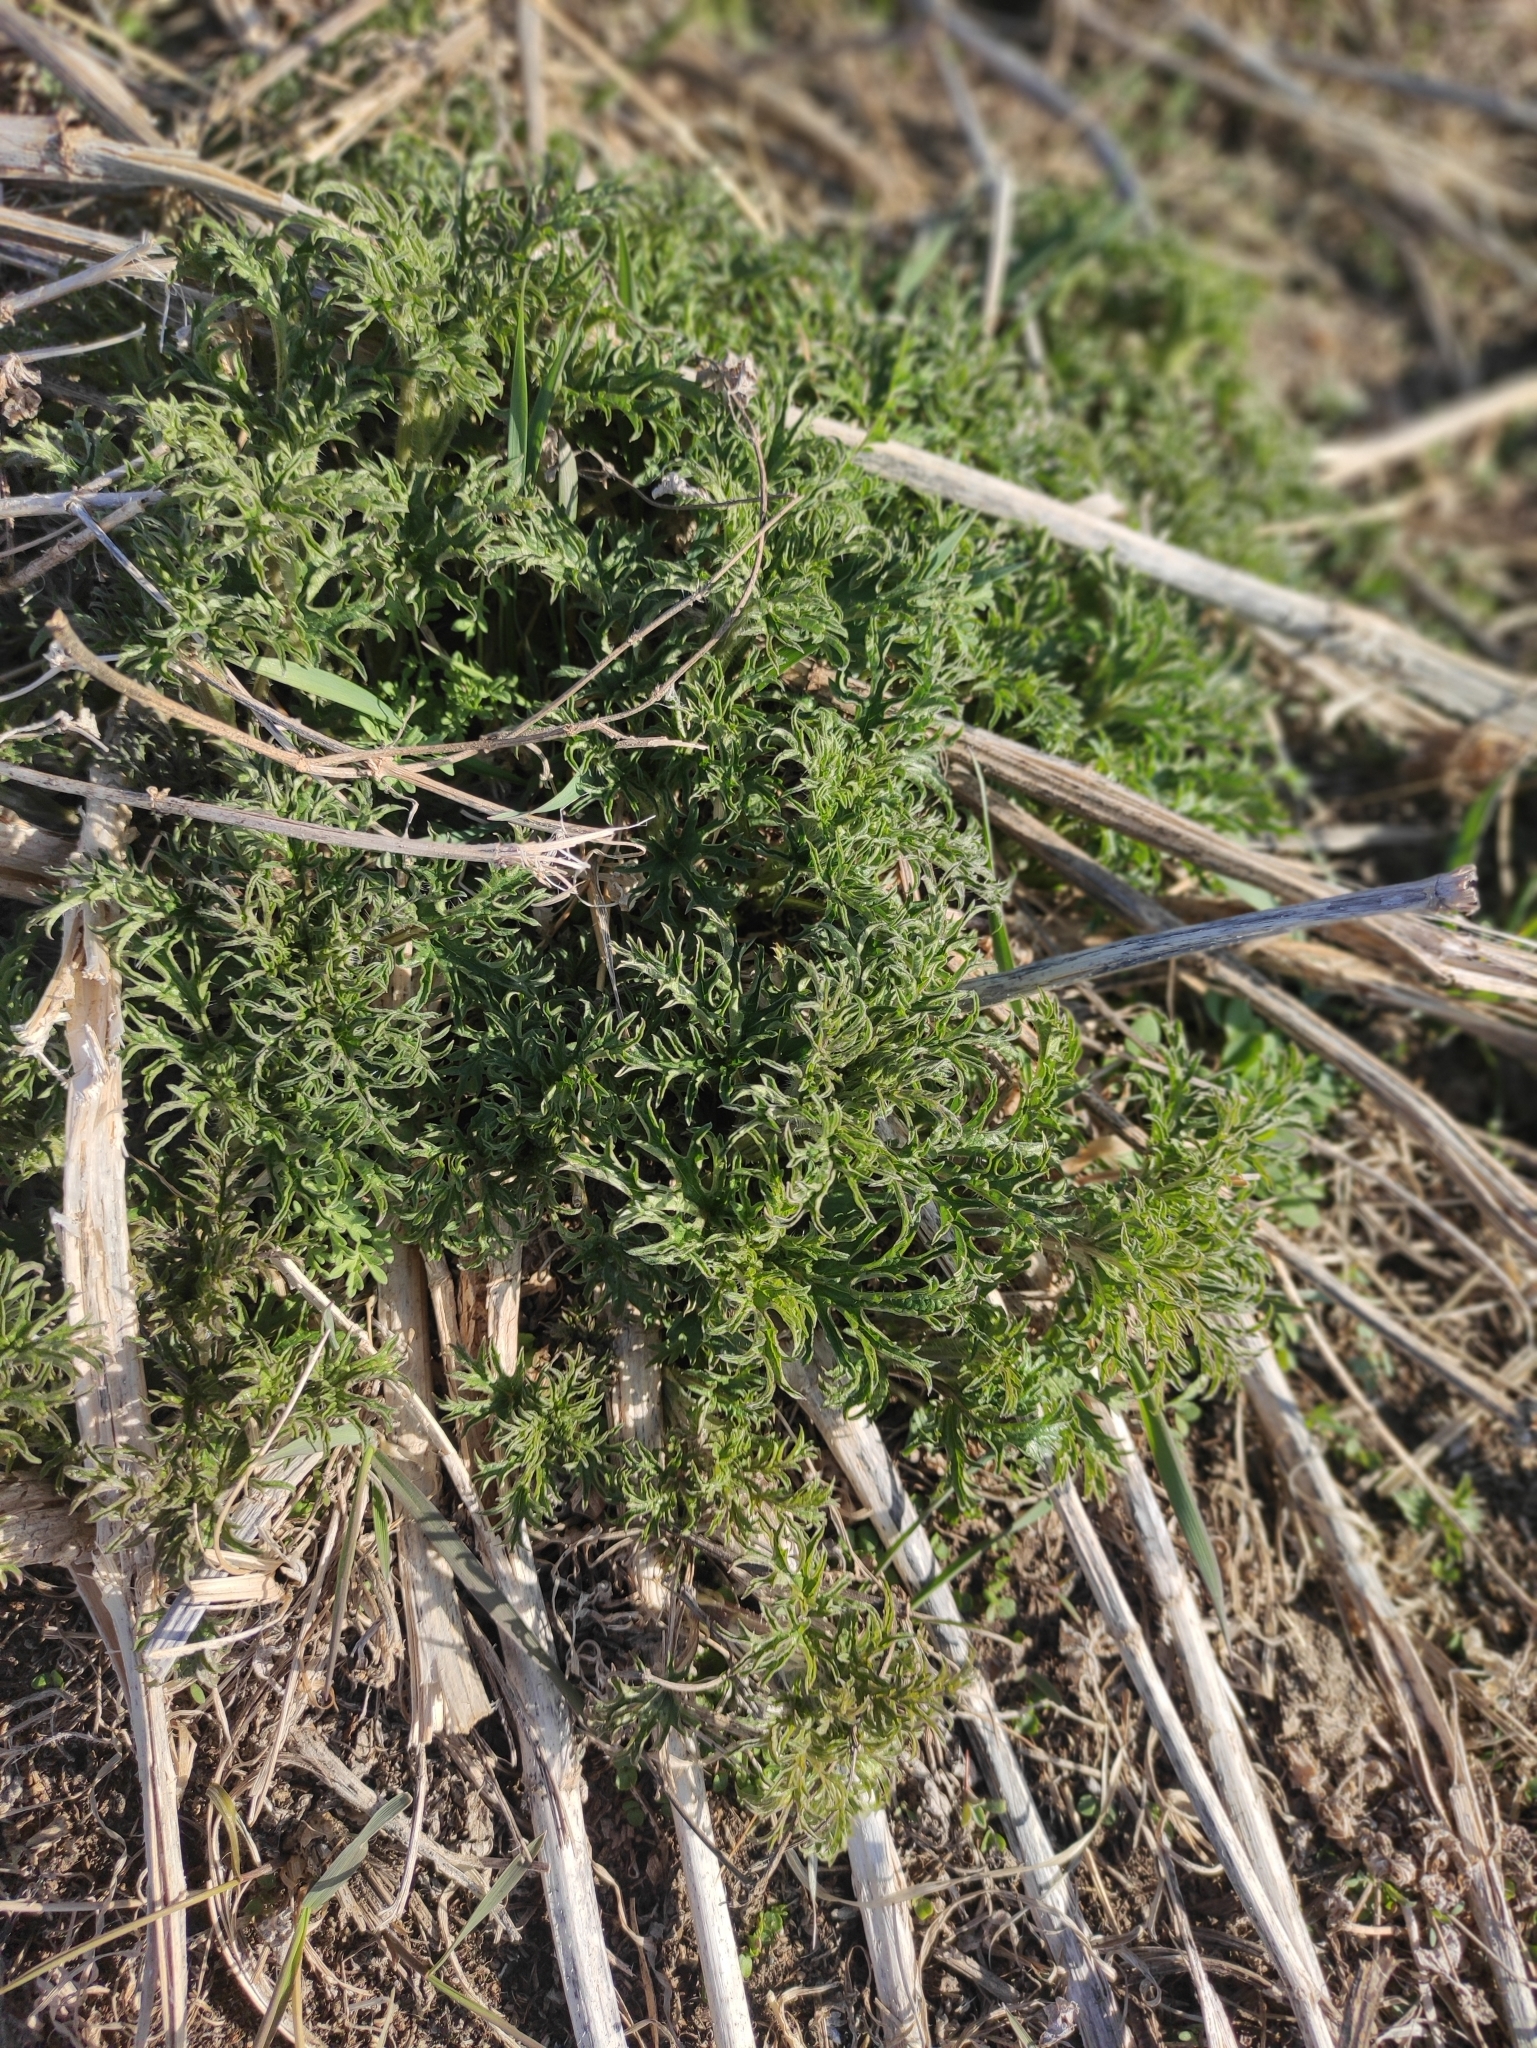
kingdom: Plantae
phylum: Tracheophyta
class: Magnoliopsida
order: Rosales
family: Urticaceae
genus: Urtica
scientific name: Urtica cannabina
